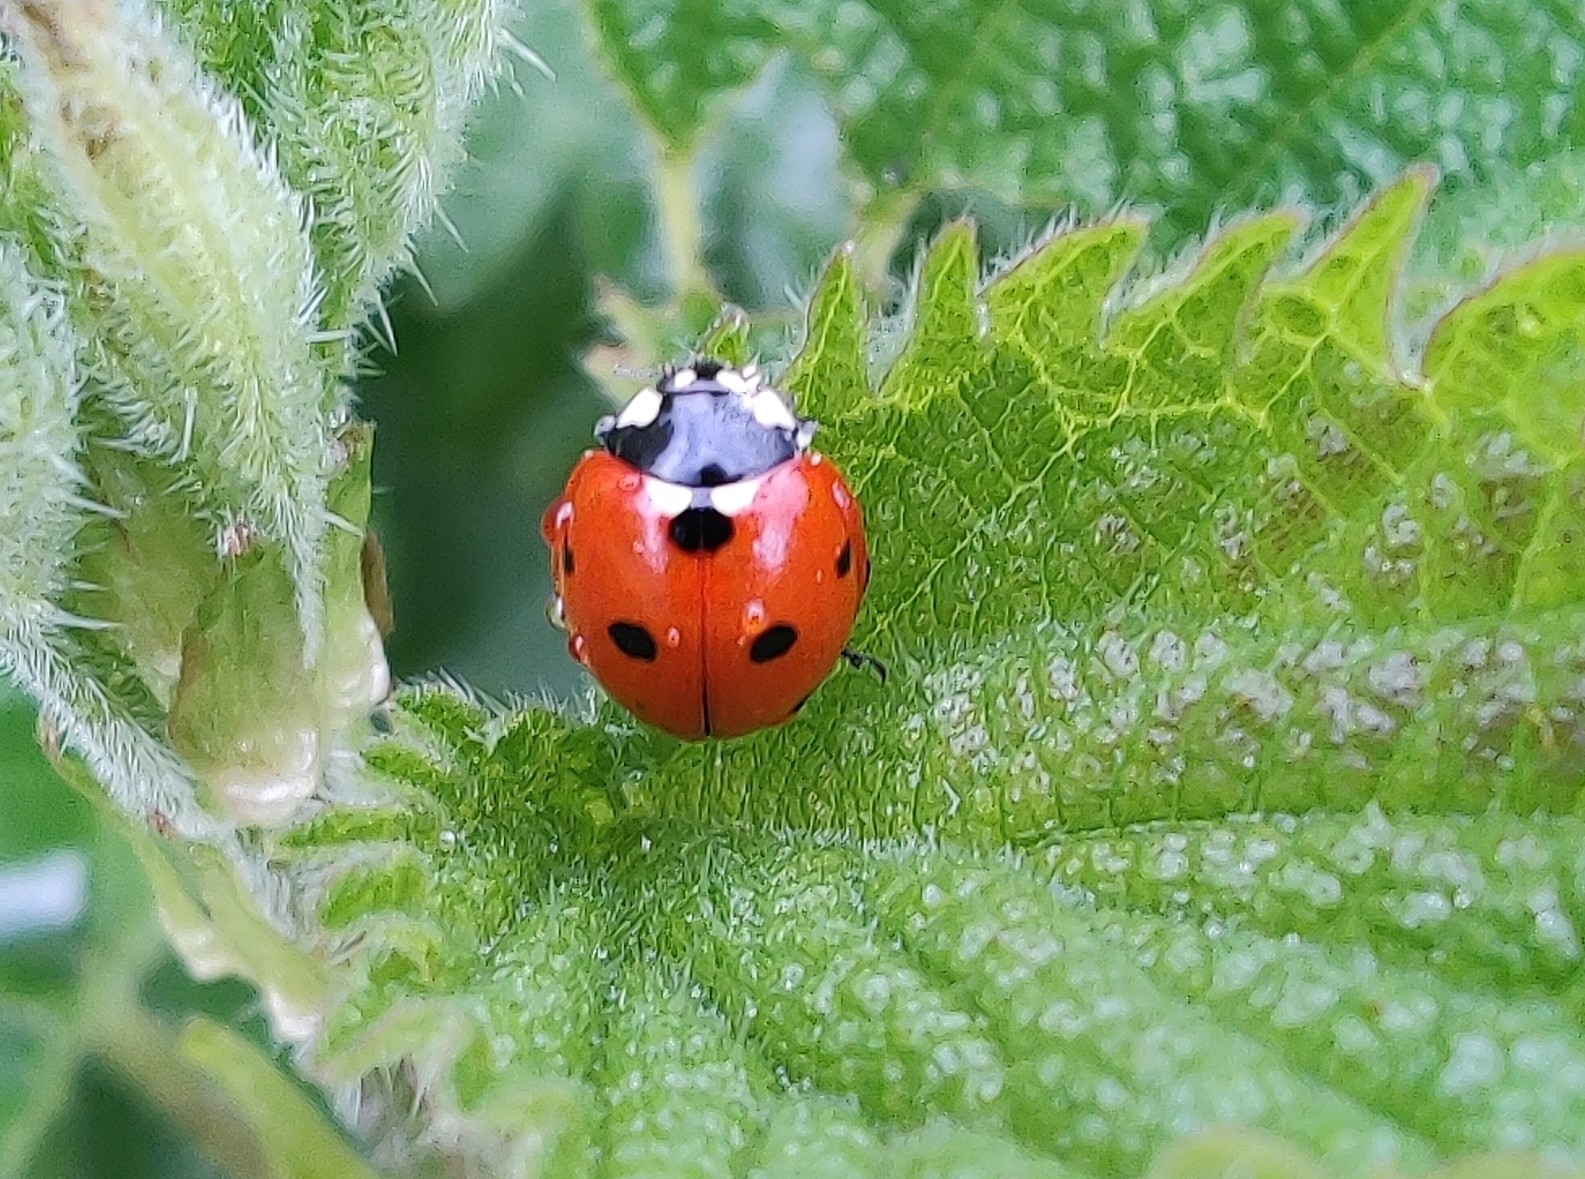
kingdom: Animalia
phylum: Arthropoda
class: Insecta
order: Coleoptera
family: Coccinellidae
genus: Coccinella
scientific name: Coccinella septempunctata
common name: Sevenspotted lady beetle
